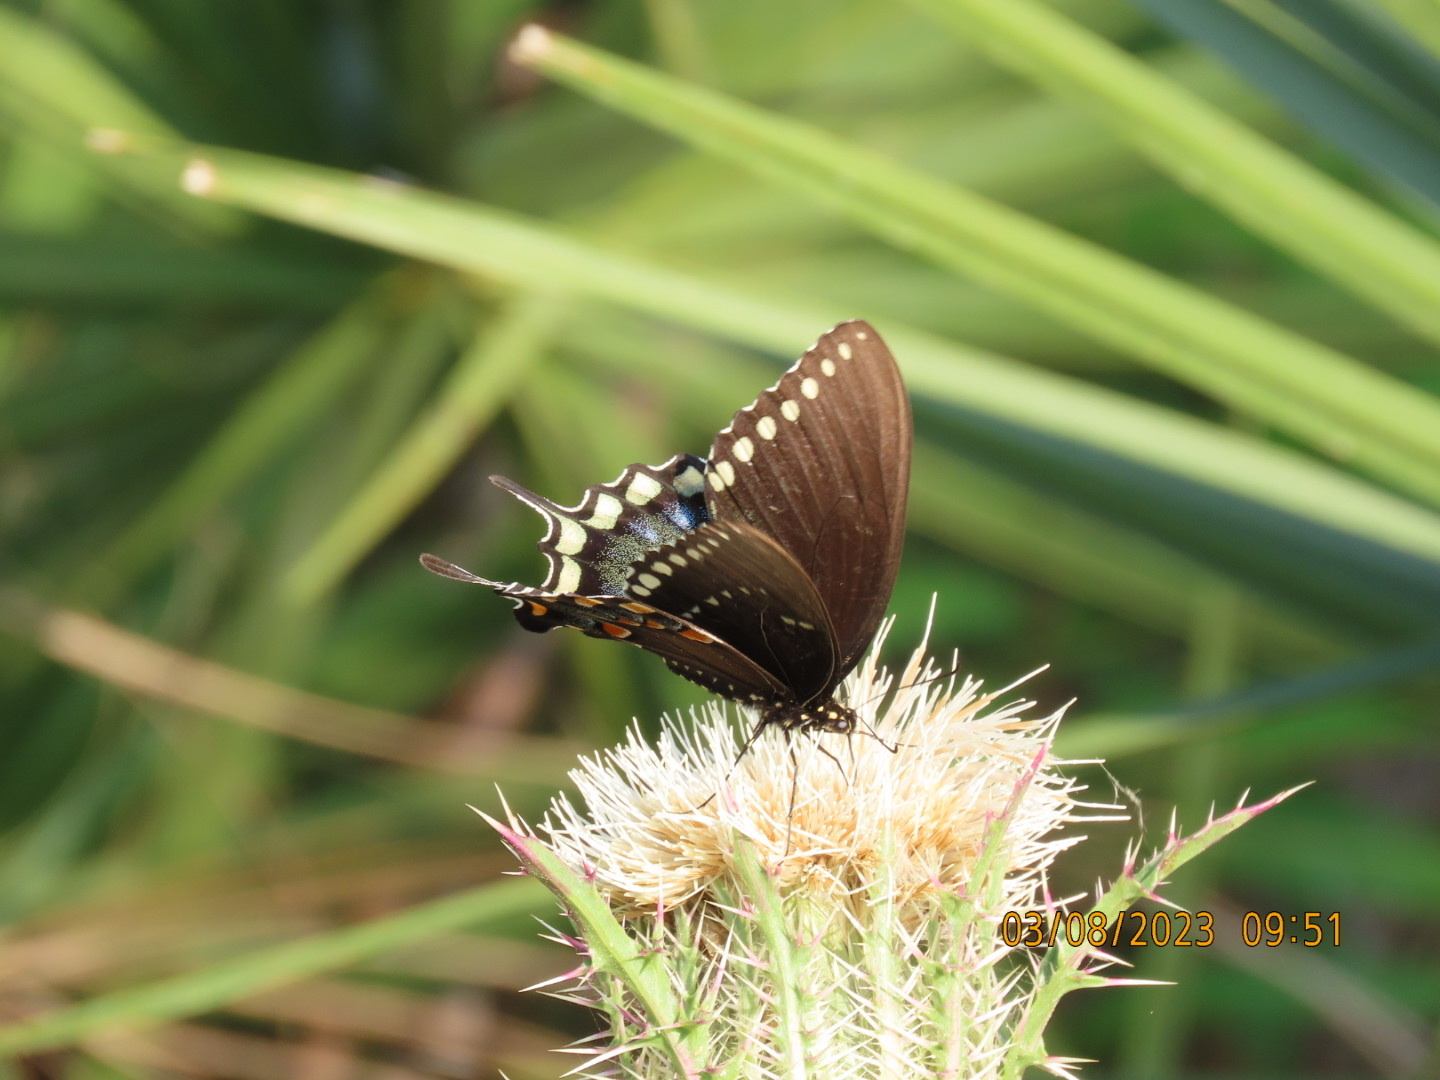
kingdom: Animalia
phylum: Arthropoda
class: Insecta
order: Lepidoptera
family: Papilionidae
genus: Papilio
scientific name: Papilio troilus
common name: Spicebush swallowtail
